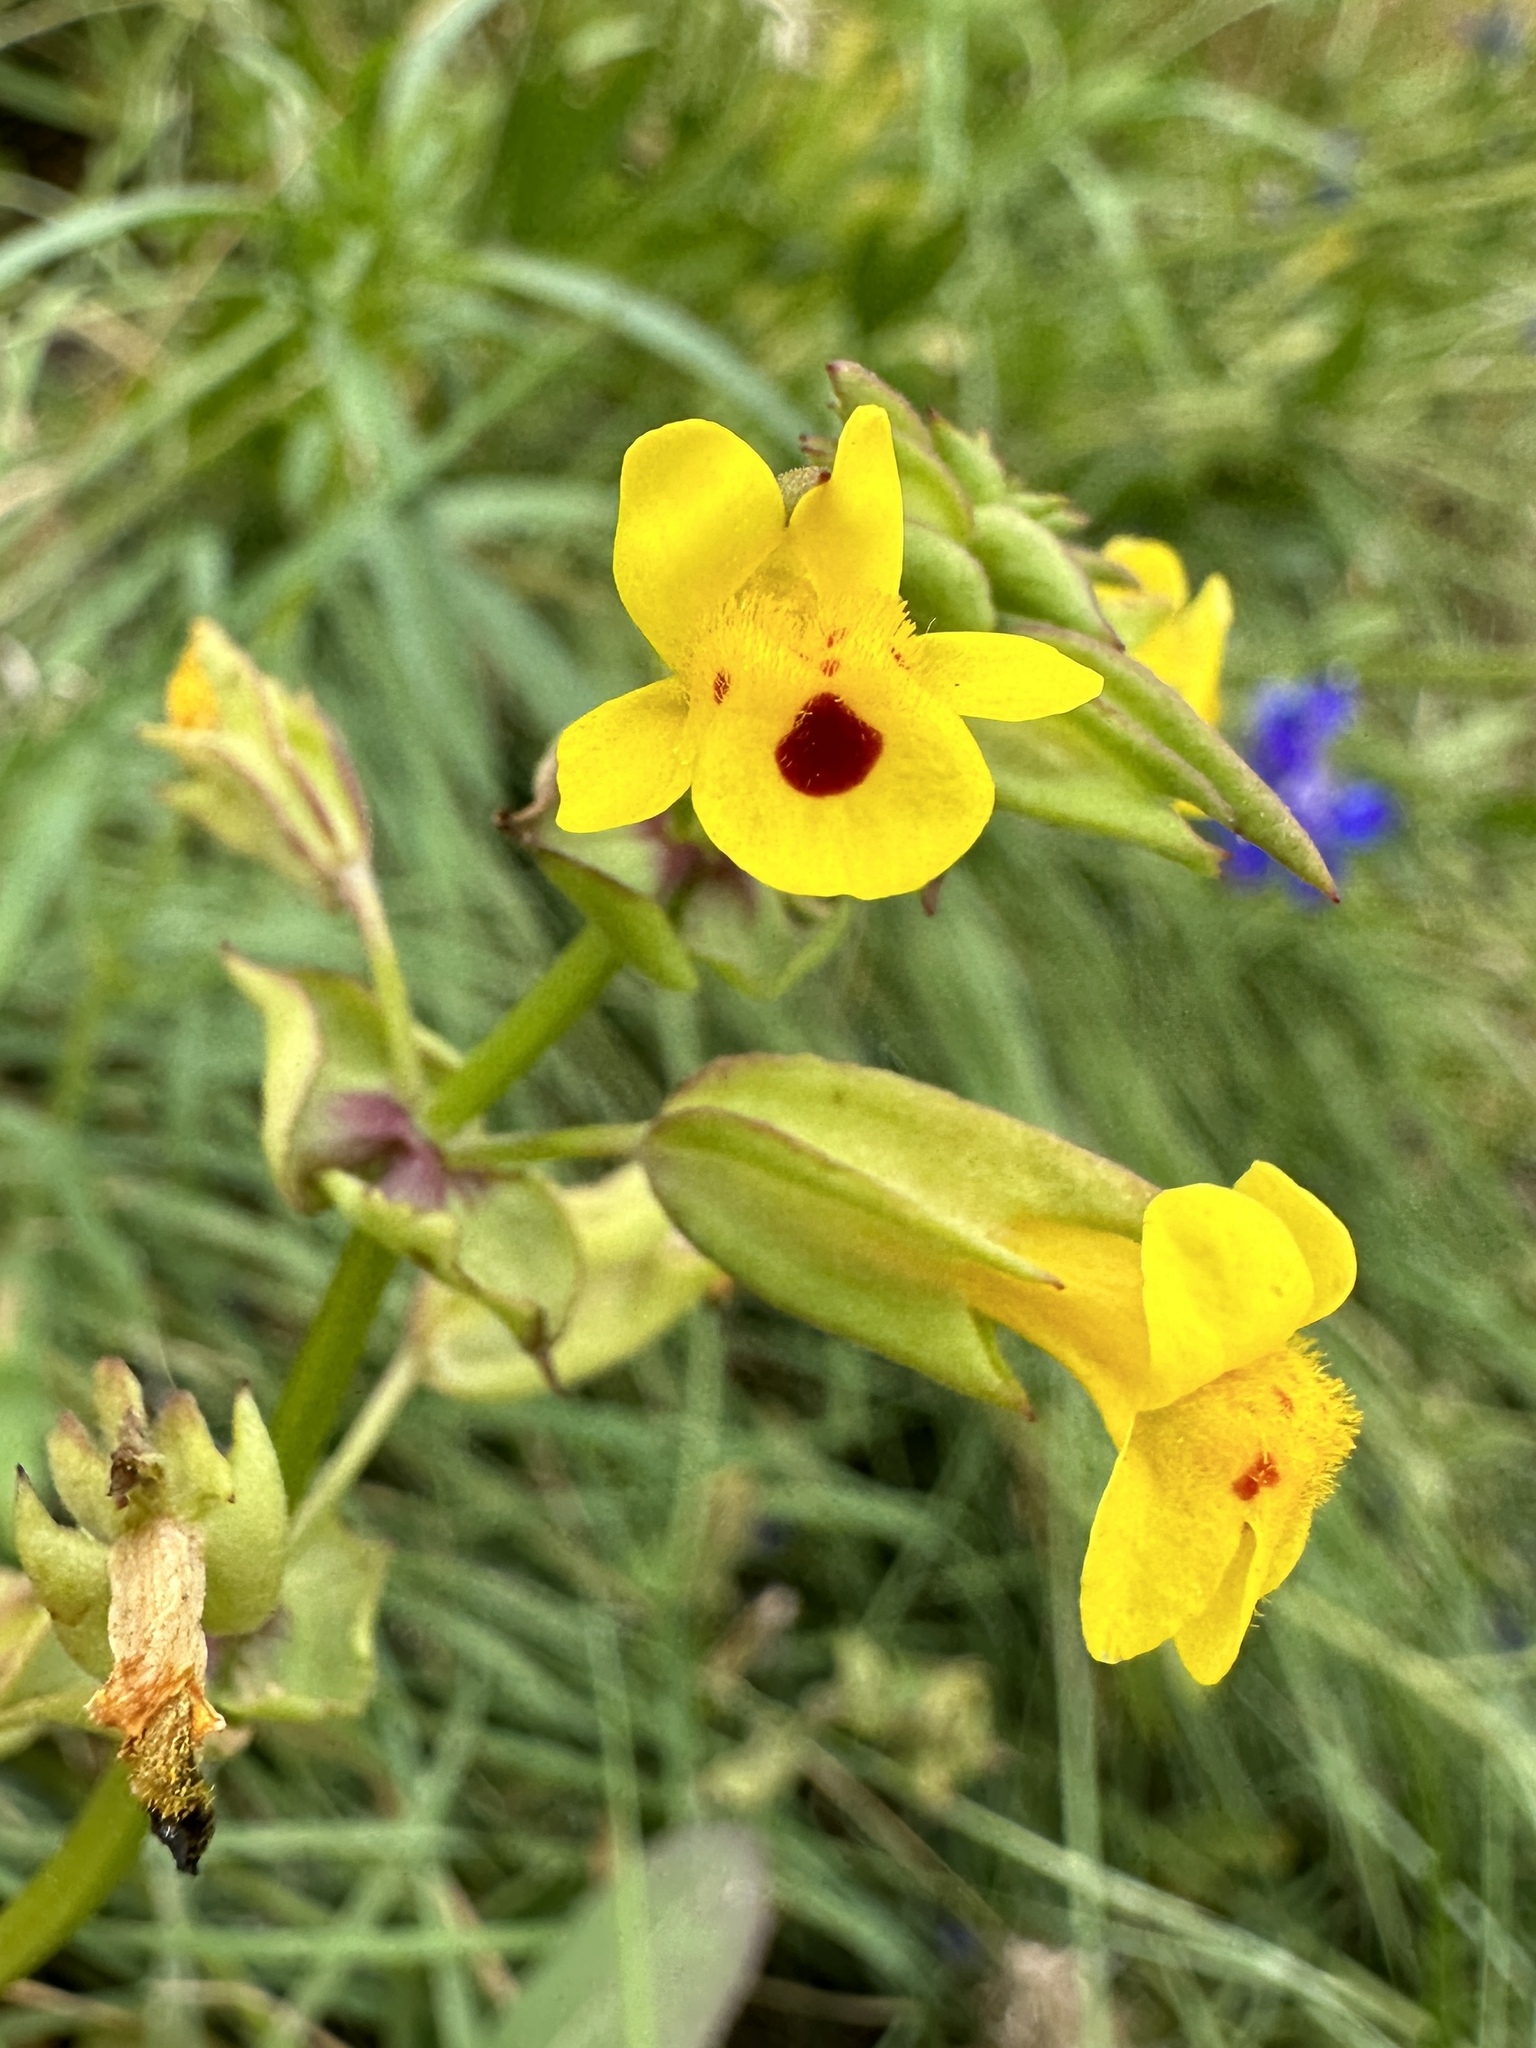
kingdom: Plantae
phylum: Tracheophyta
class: Magnoliopsida
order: Lamiales
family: Phrymaceae
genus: Erythranthe
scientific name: Erythranthe nasuta
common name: Sooke monkeyflower
